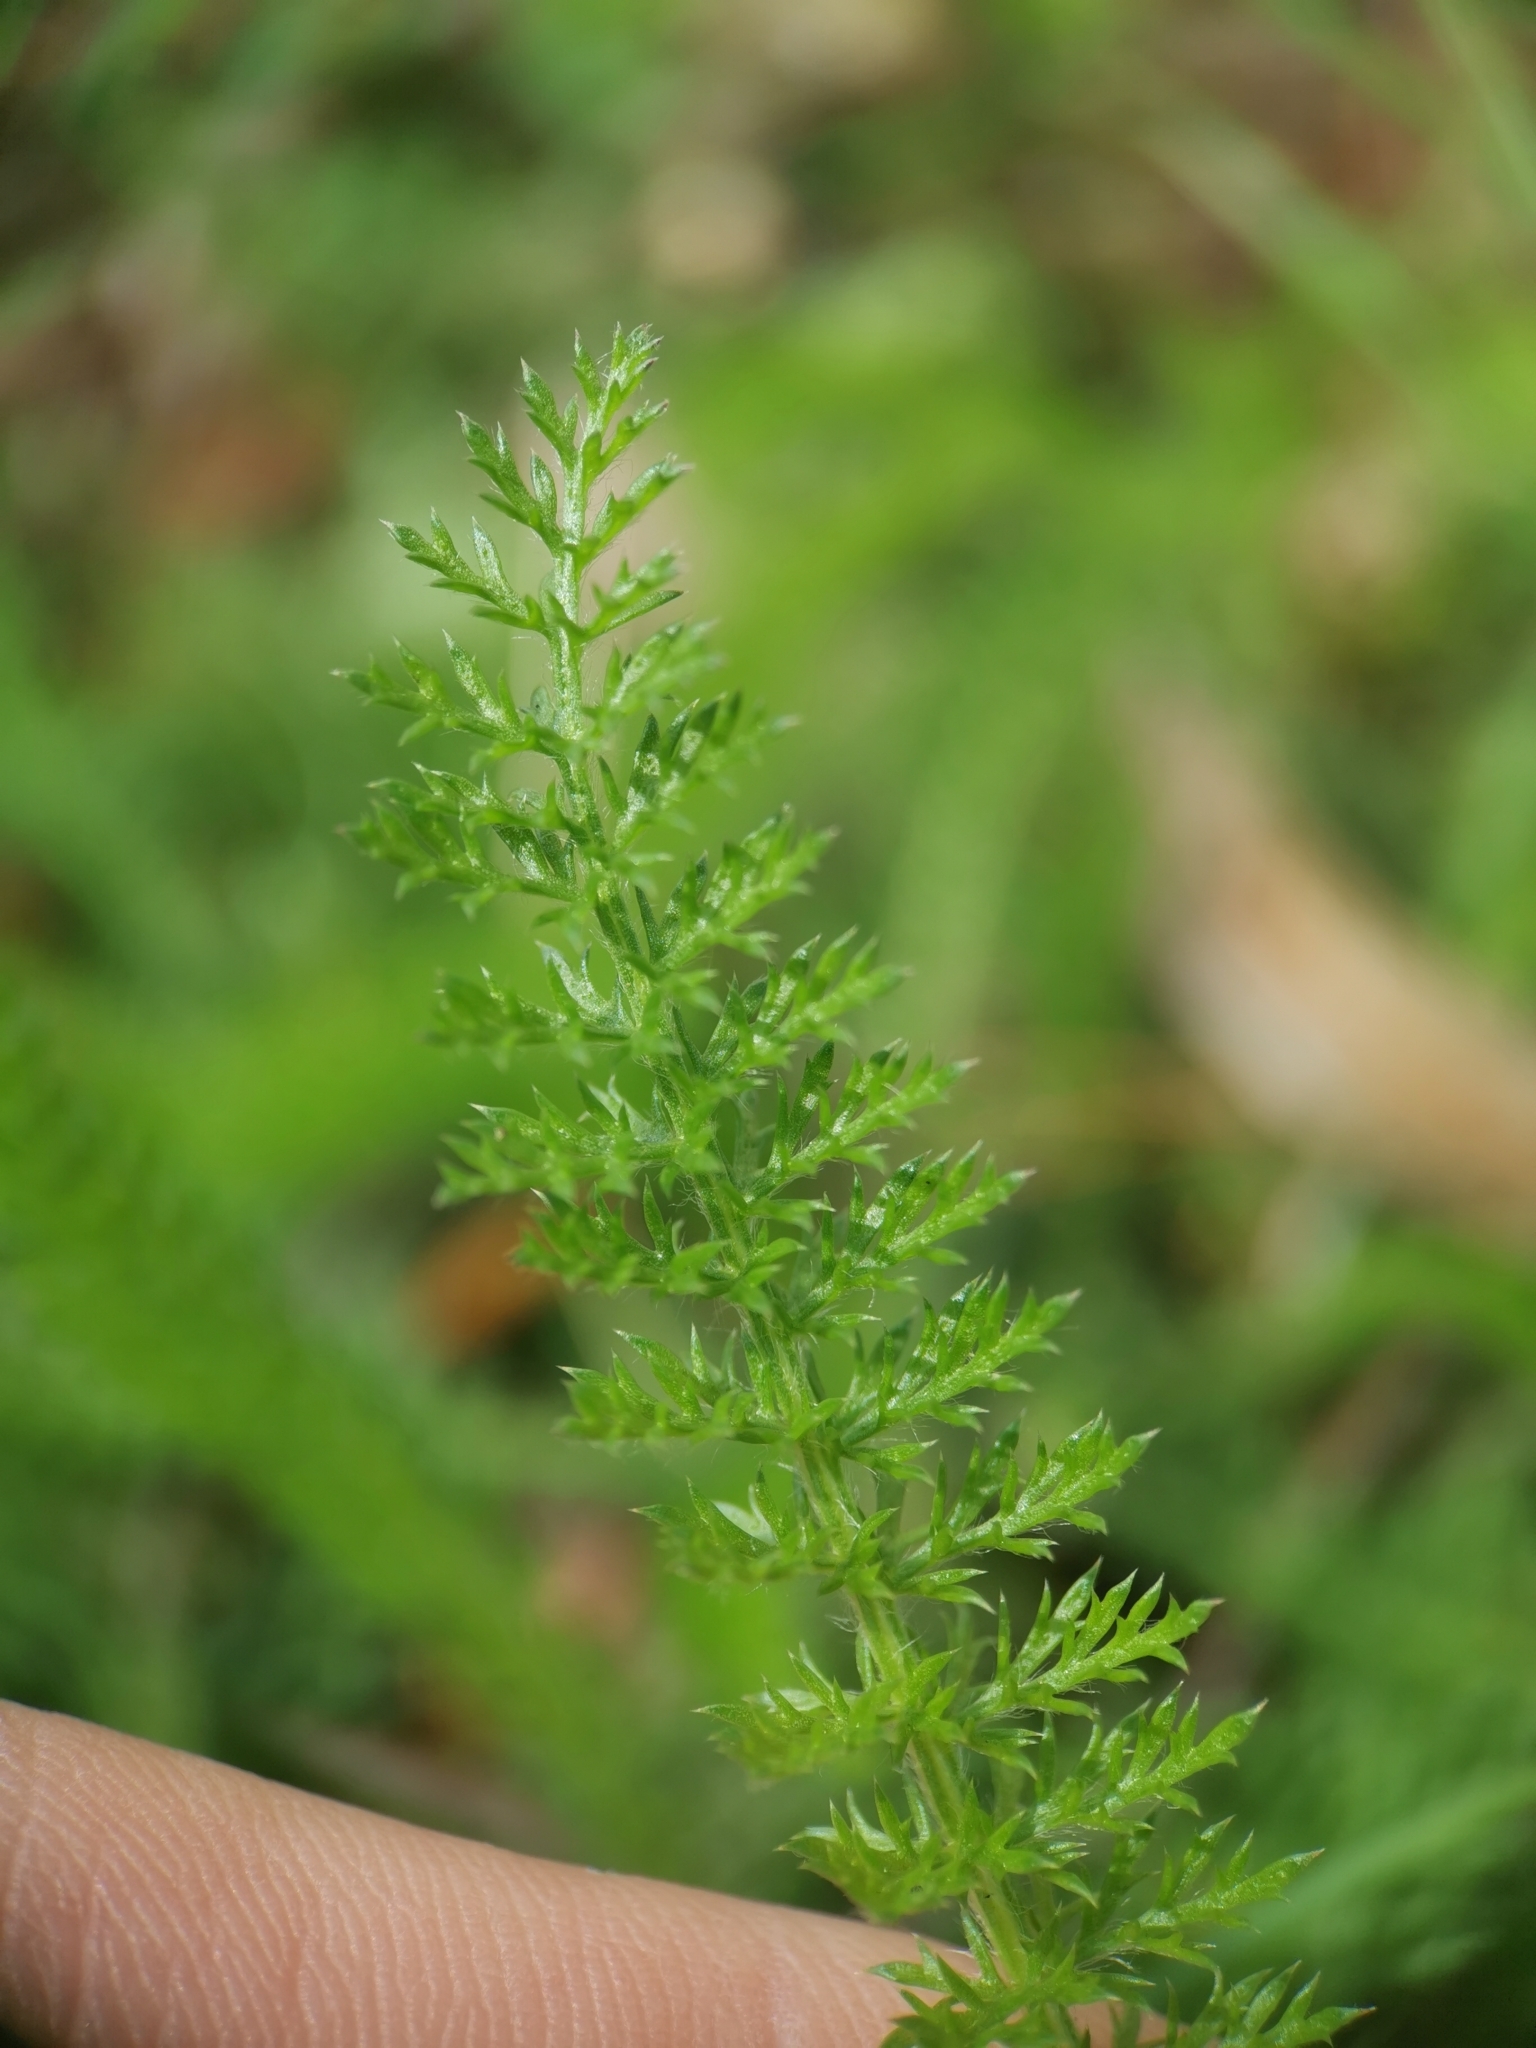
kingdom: Plantae
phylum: Tracheophyta
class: Magnoliopsida
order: Asterales
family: Asteraceae
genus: Achillea
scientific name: Achillea millefolium
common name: Yarrow
